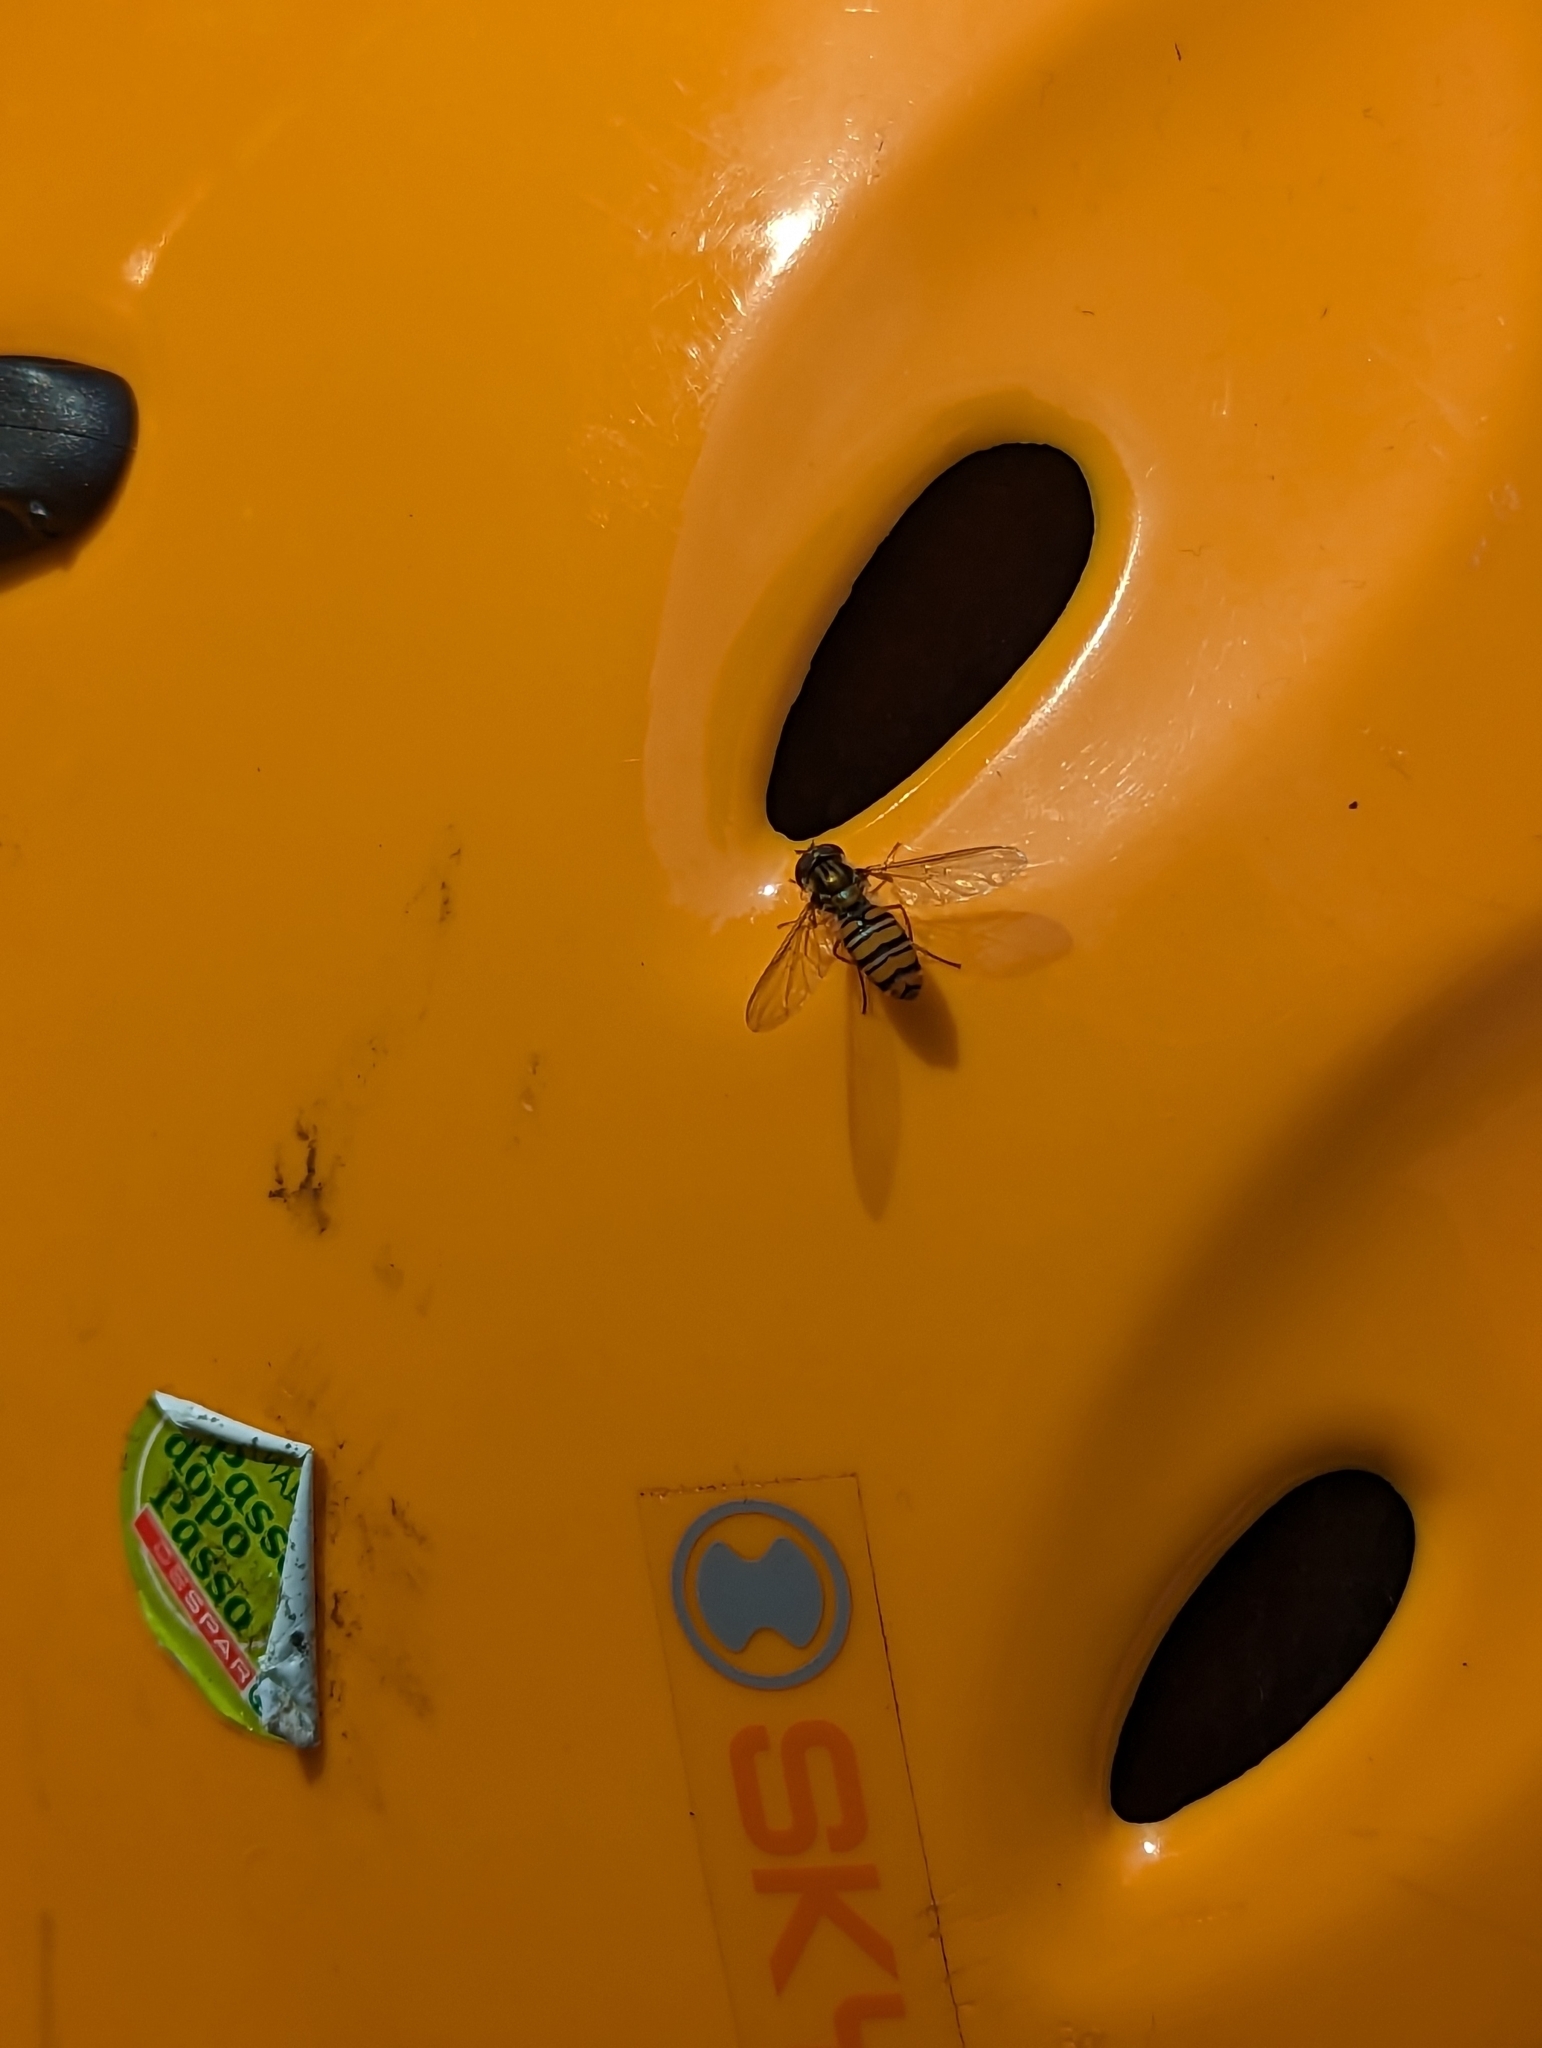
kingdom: Animalia
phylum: Arthropoda
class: Insecta
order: Diptera
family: Syrphidae
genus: Episyrphus
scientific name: Episyrphus balteatus
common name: Marmalade hoverfly
